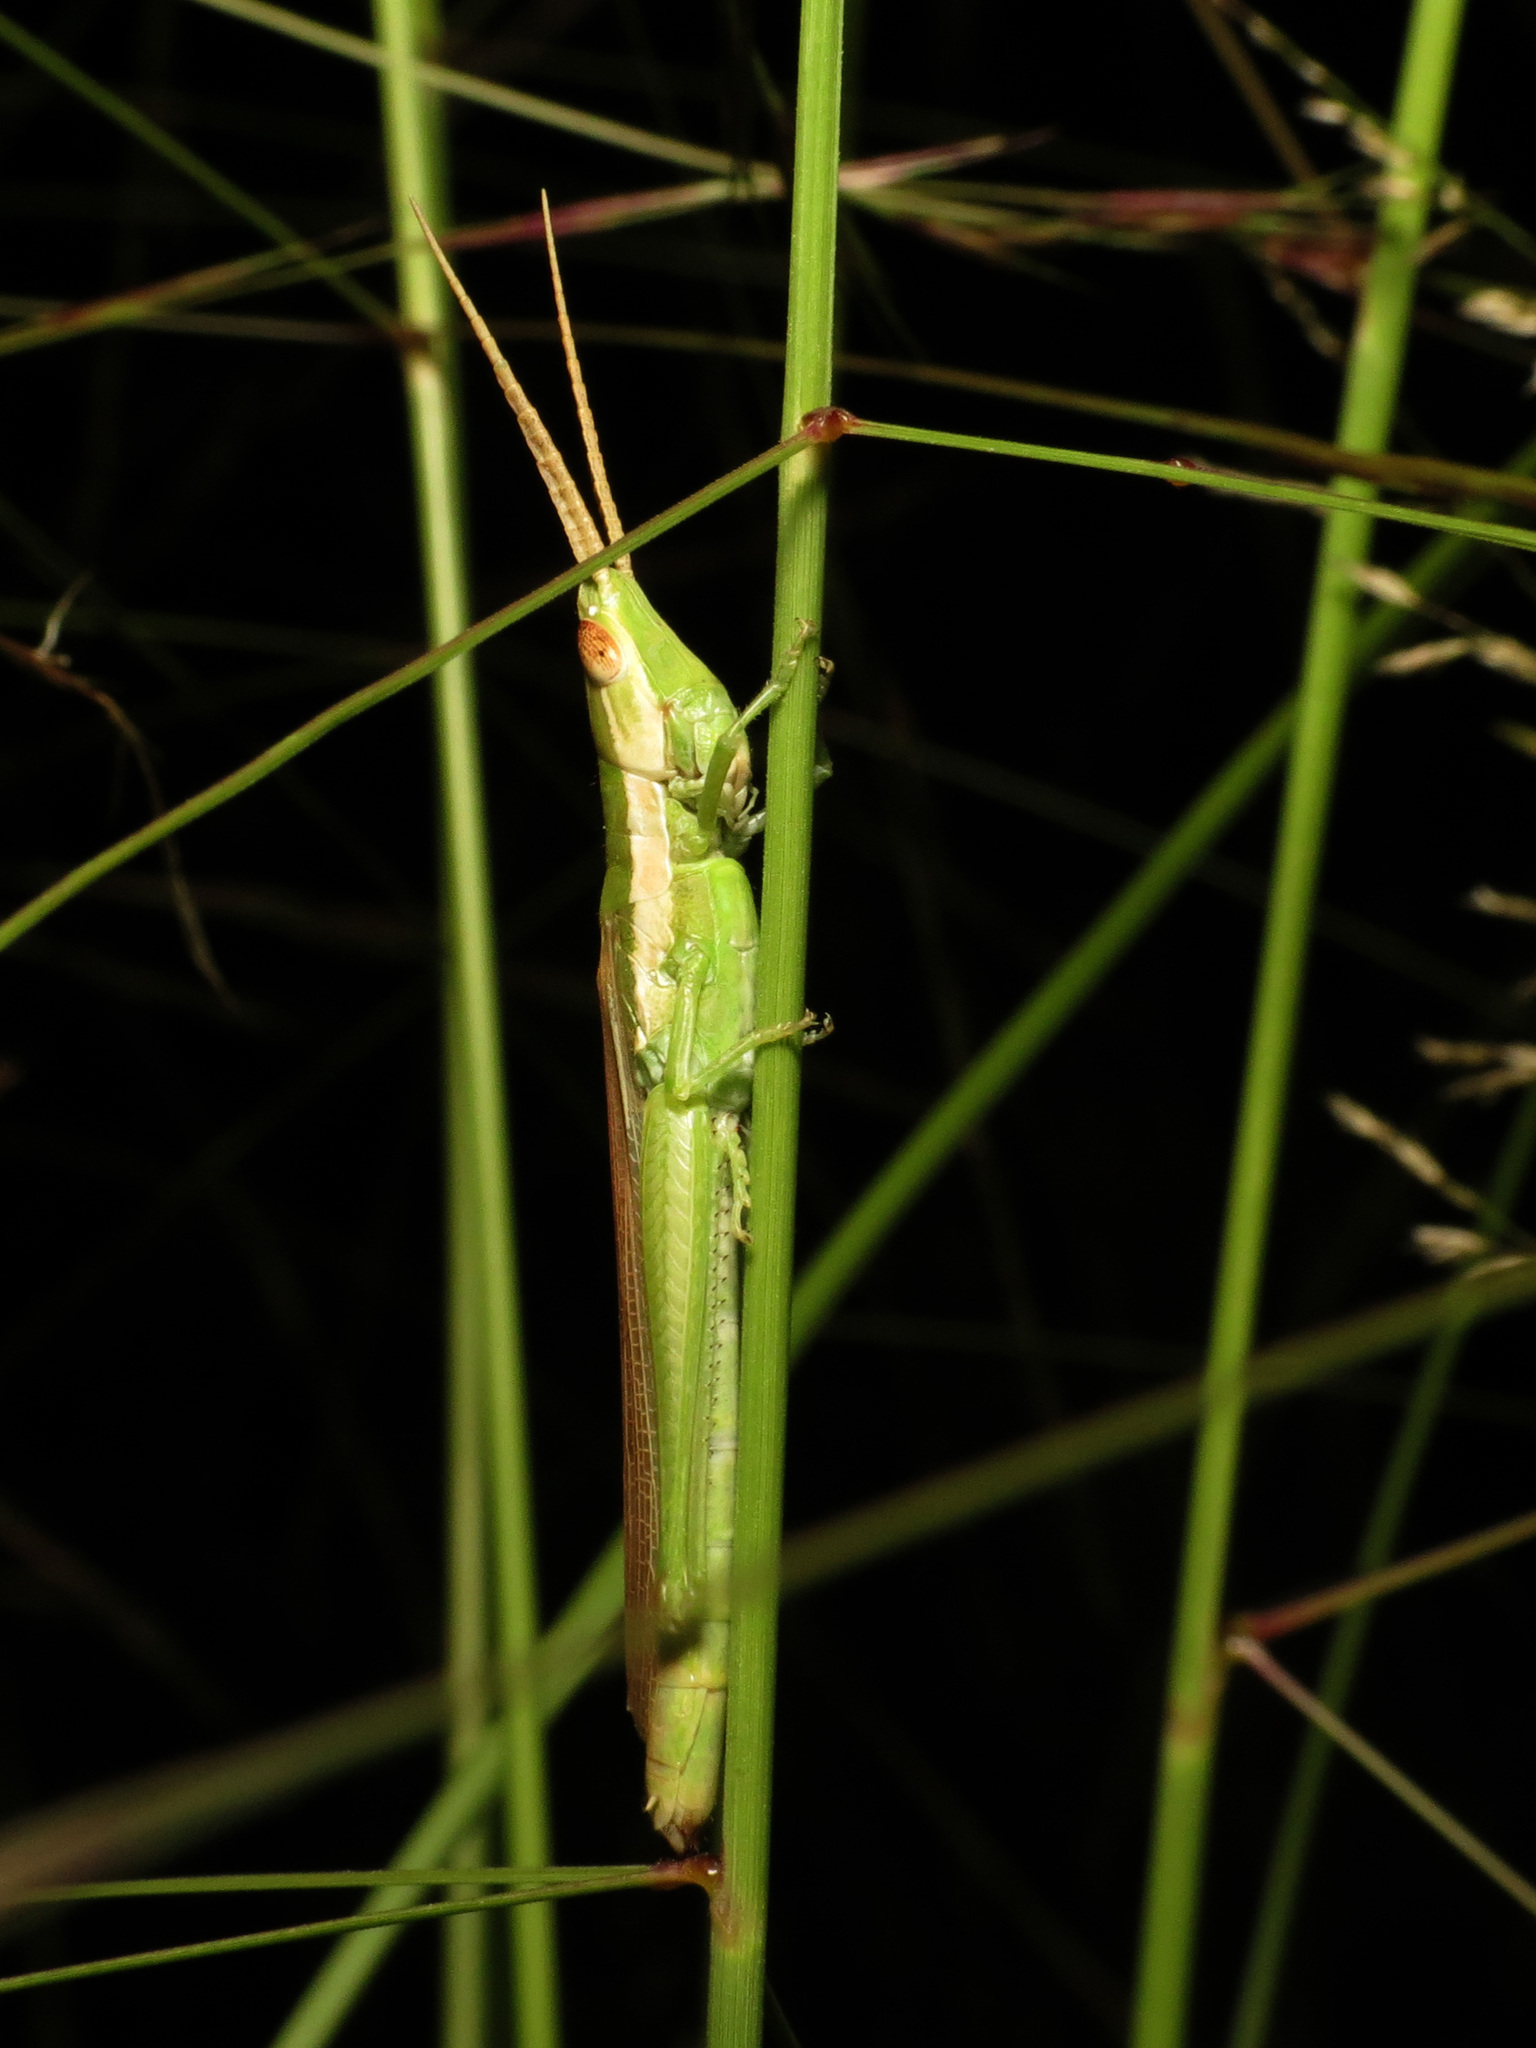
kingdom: Animalia
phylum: Arthropoda
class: Insecta
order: Orthoptera
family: Acrididae
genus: Paropomala
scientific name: Paropomala pallida
